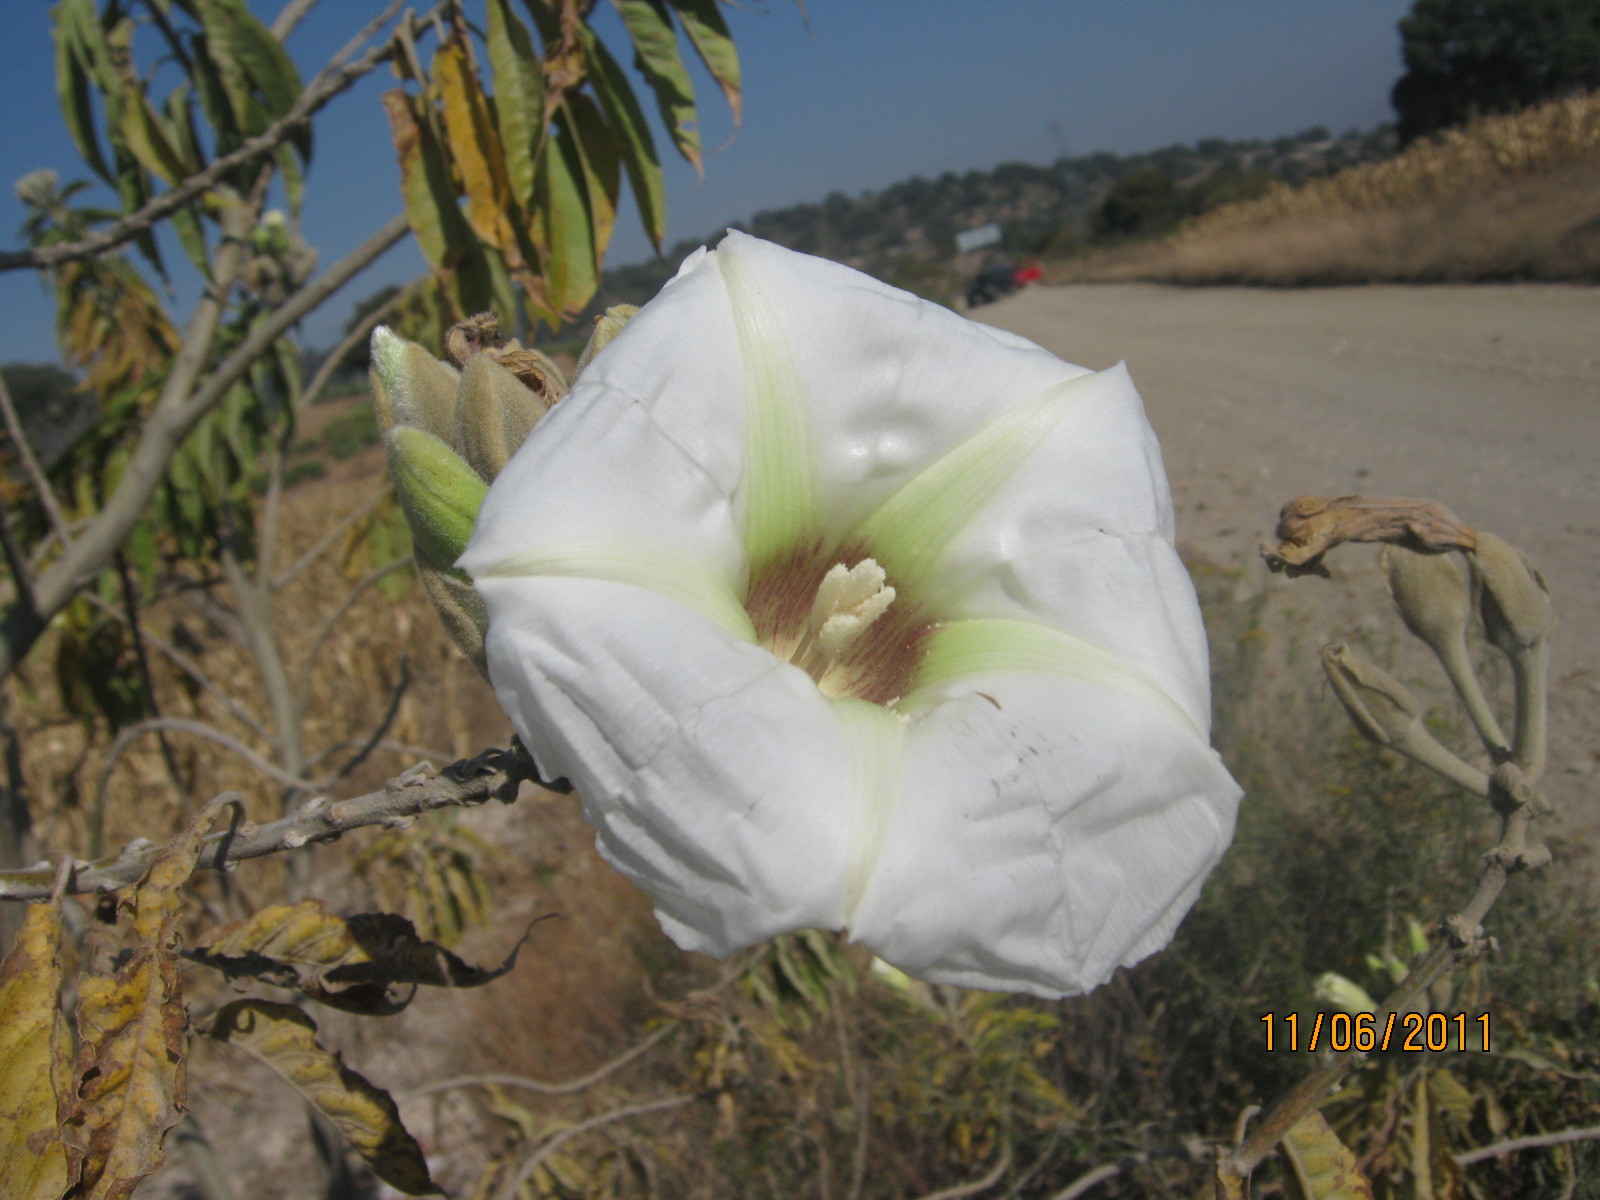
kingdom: Plantae
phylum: Tracheophyta
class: Magnoliopsida
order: Solanales
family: Convolvulaceae
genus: Ipomoea
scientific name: Ipomoea murucoides
